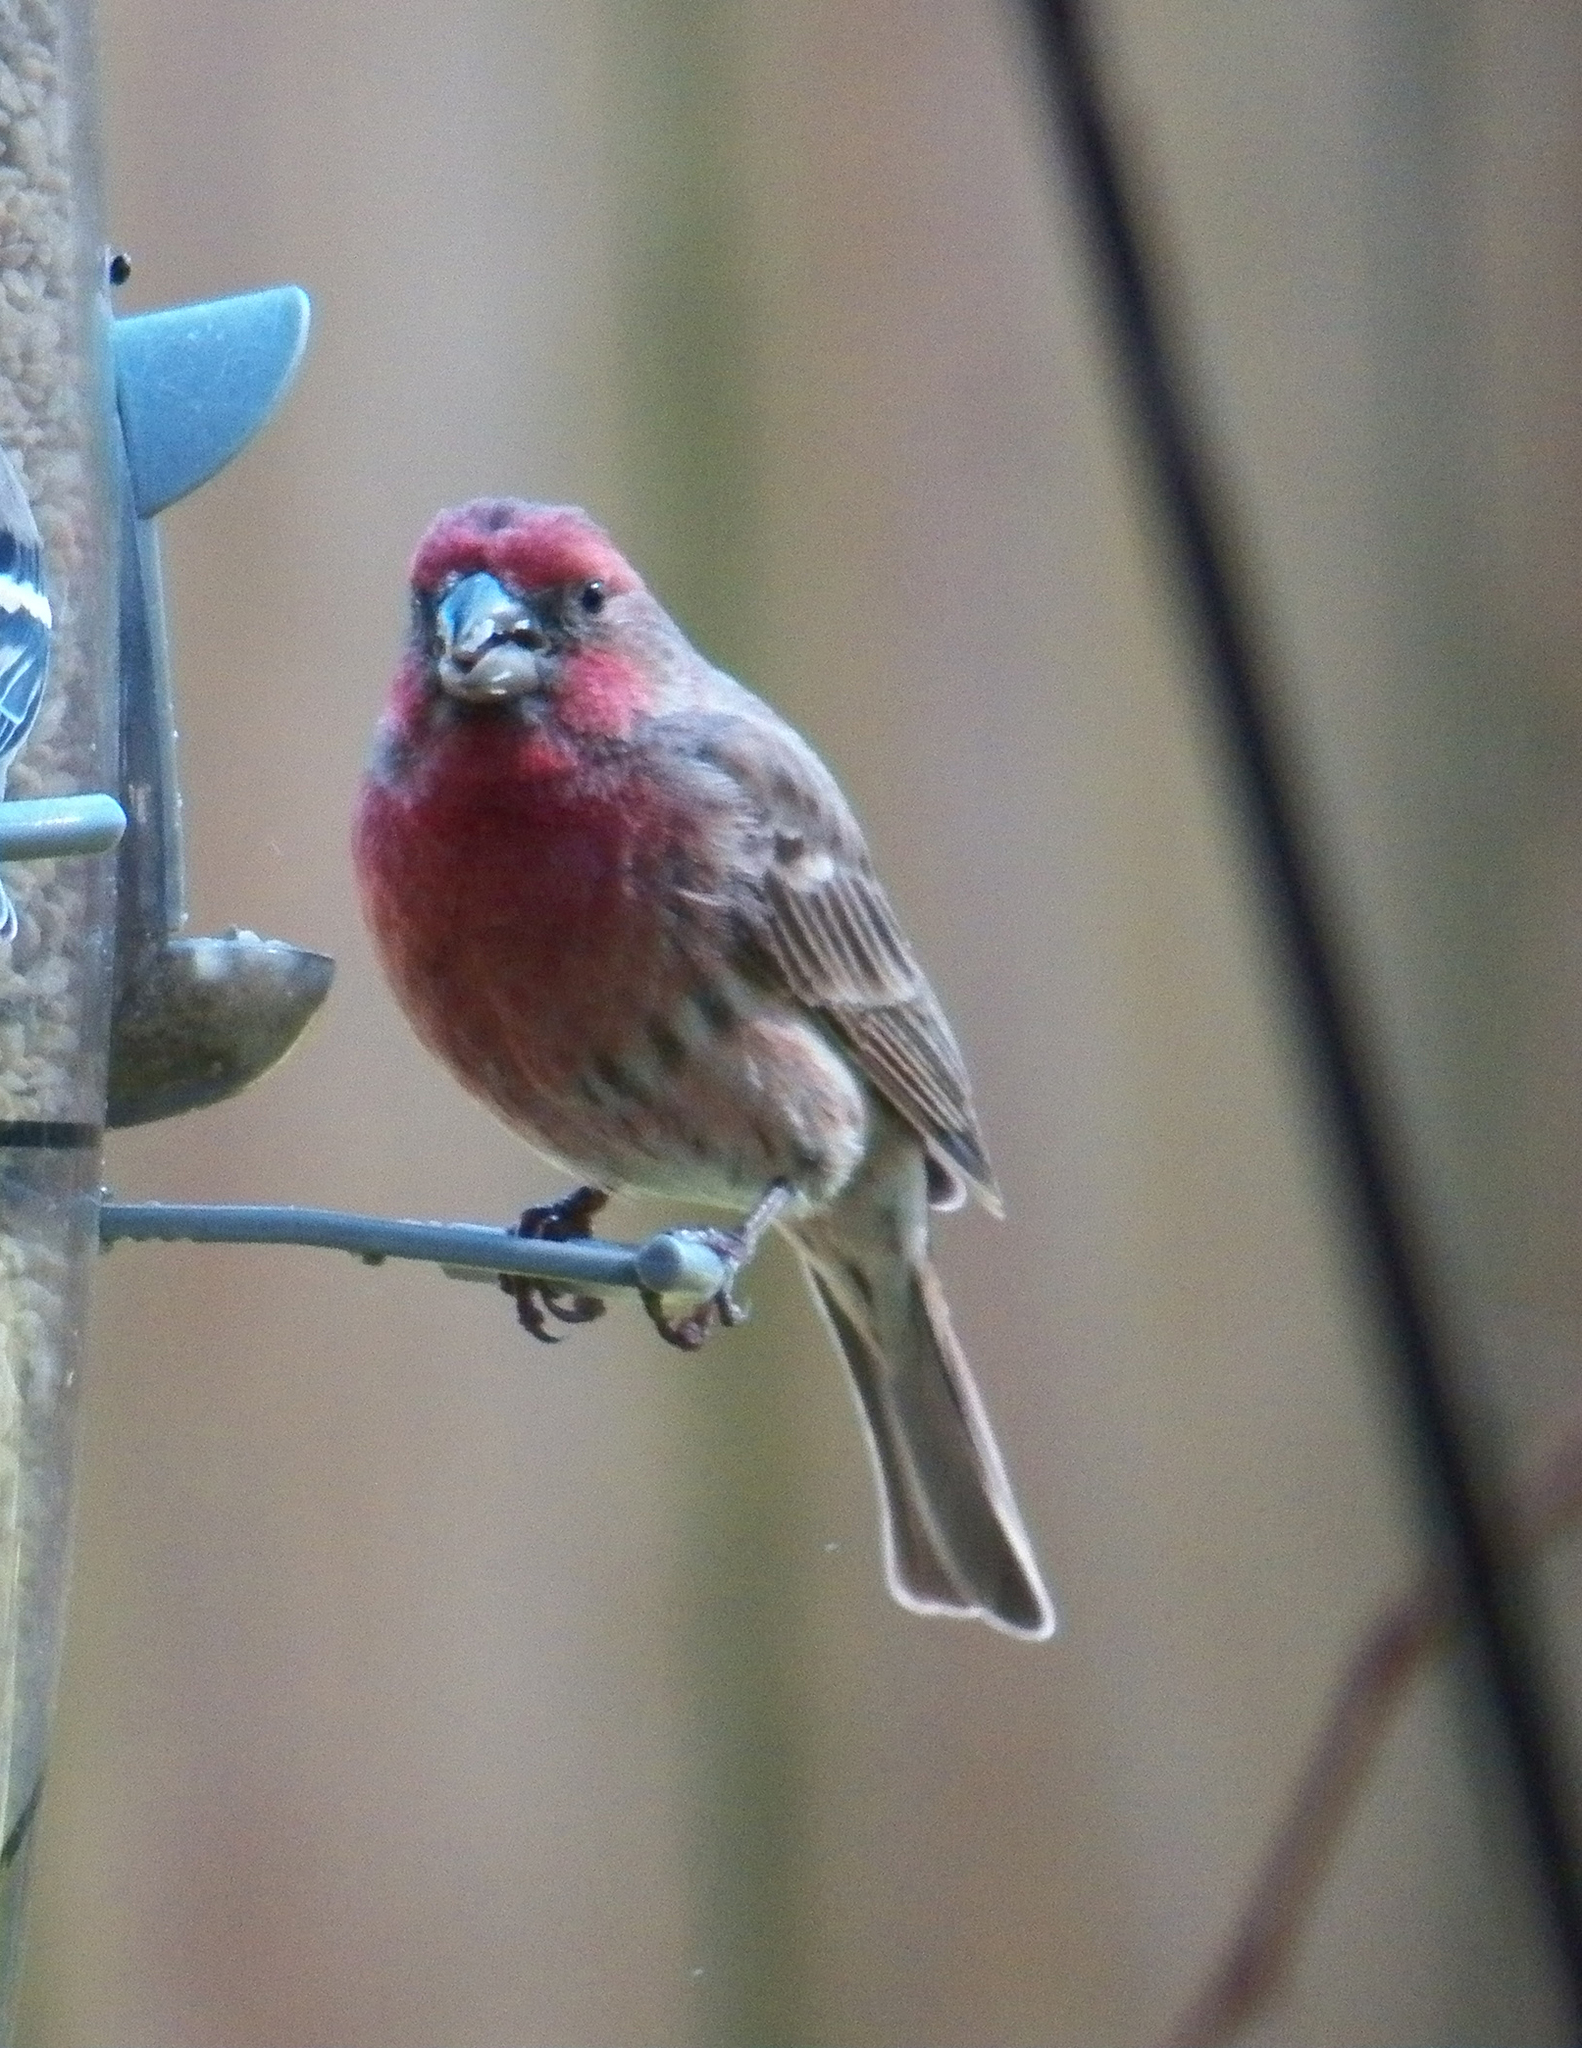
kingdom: Animalia
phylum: Chordata
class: Aves
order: Passeriformes
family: Fringillidae
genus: Haemorhous
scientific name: Haemorhous mexicanus
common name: House finch
